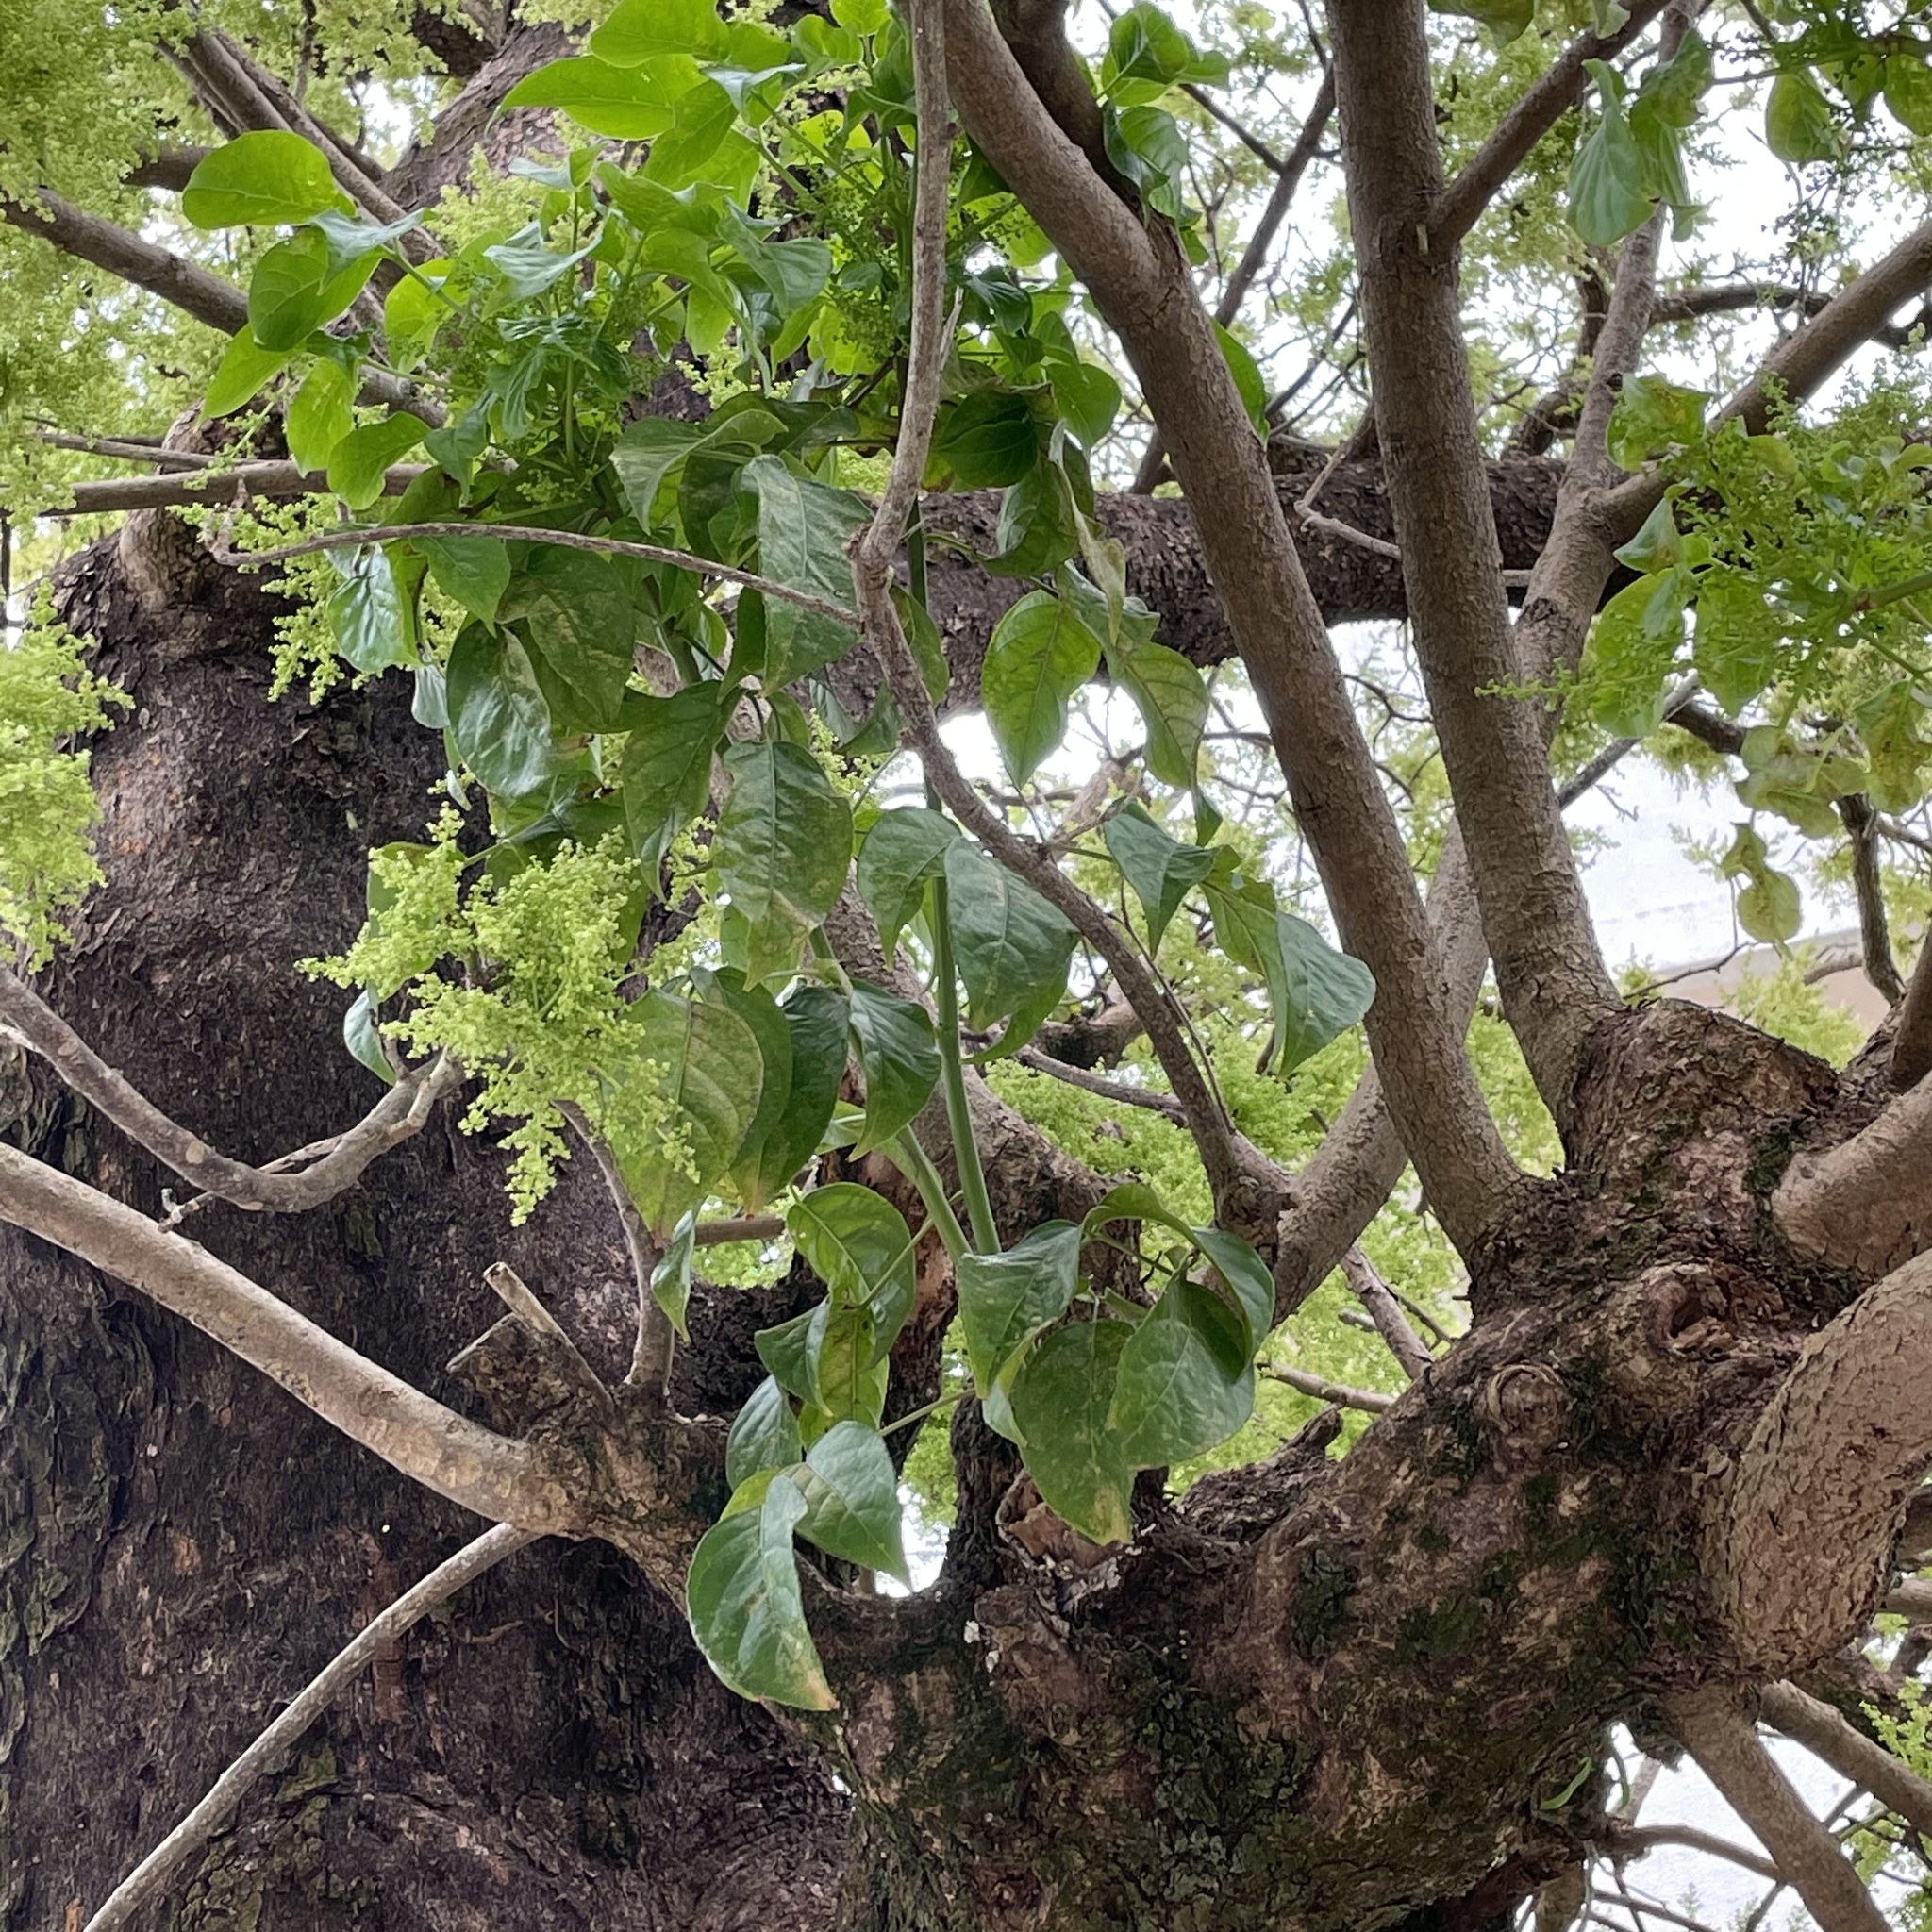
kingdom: Plantae
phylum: Tracheophyta
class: Magnoliopsida
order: Malpighiales
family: Phyllanthaceae
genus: Bischofia
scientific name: Bischofia javanica
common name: Javanese bishopwood
